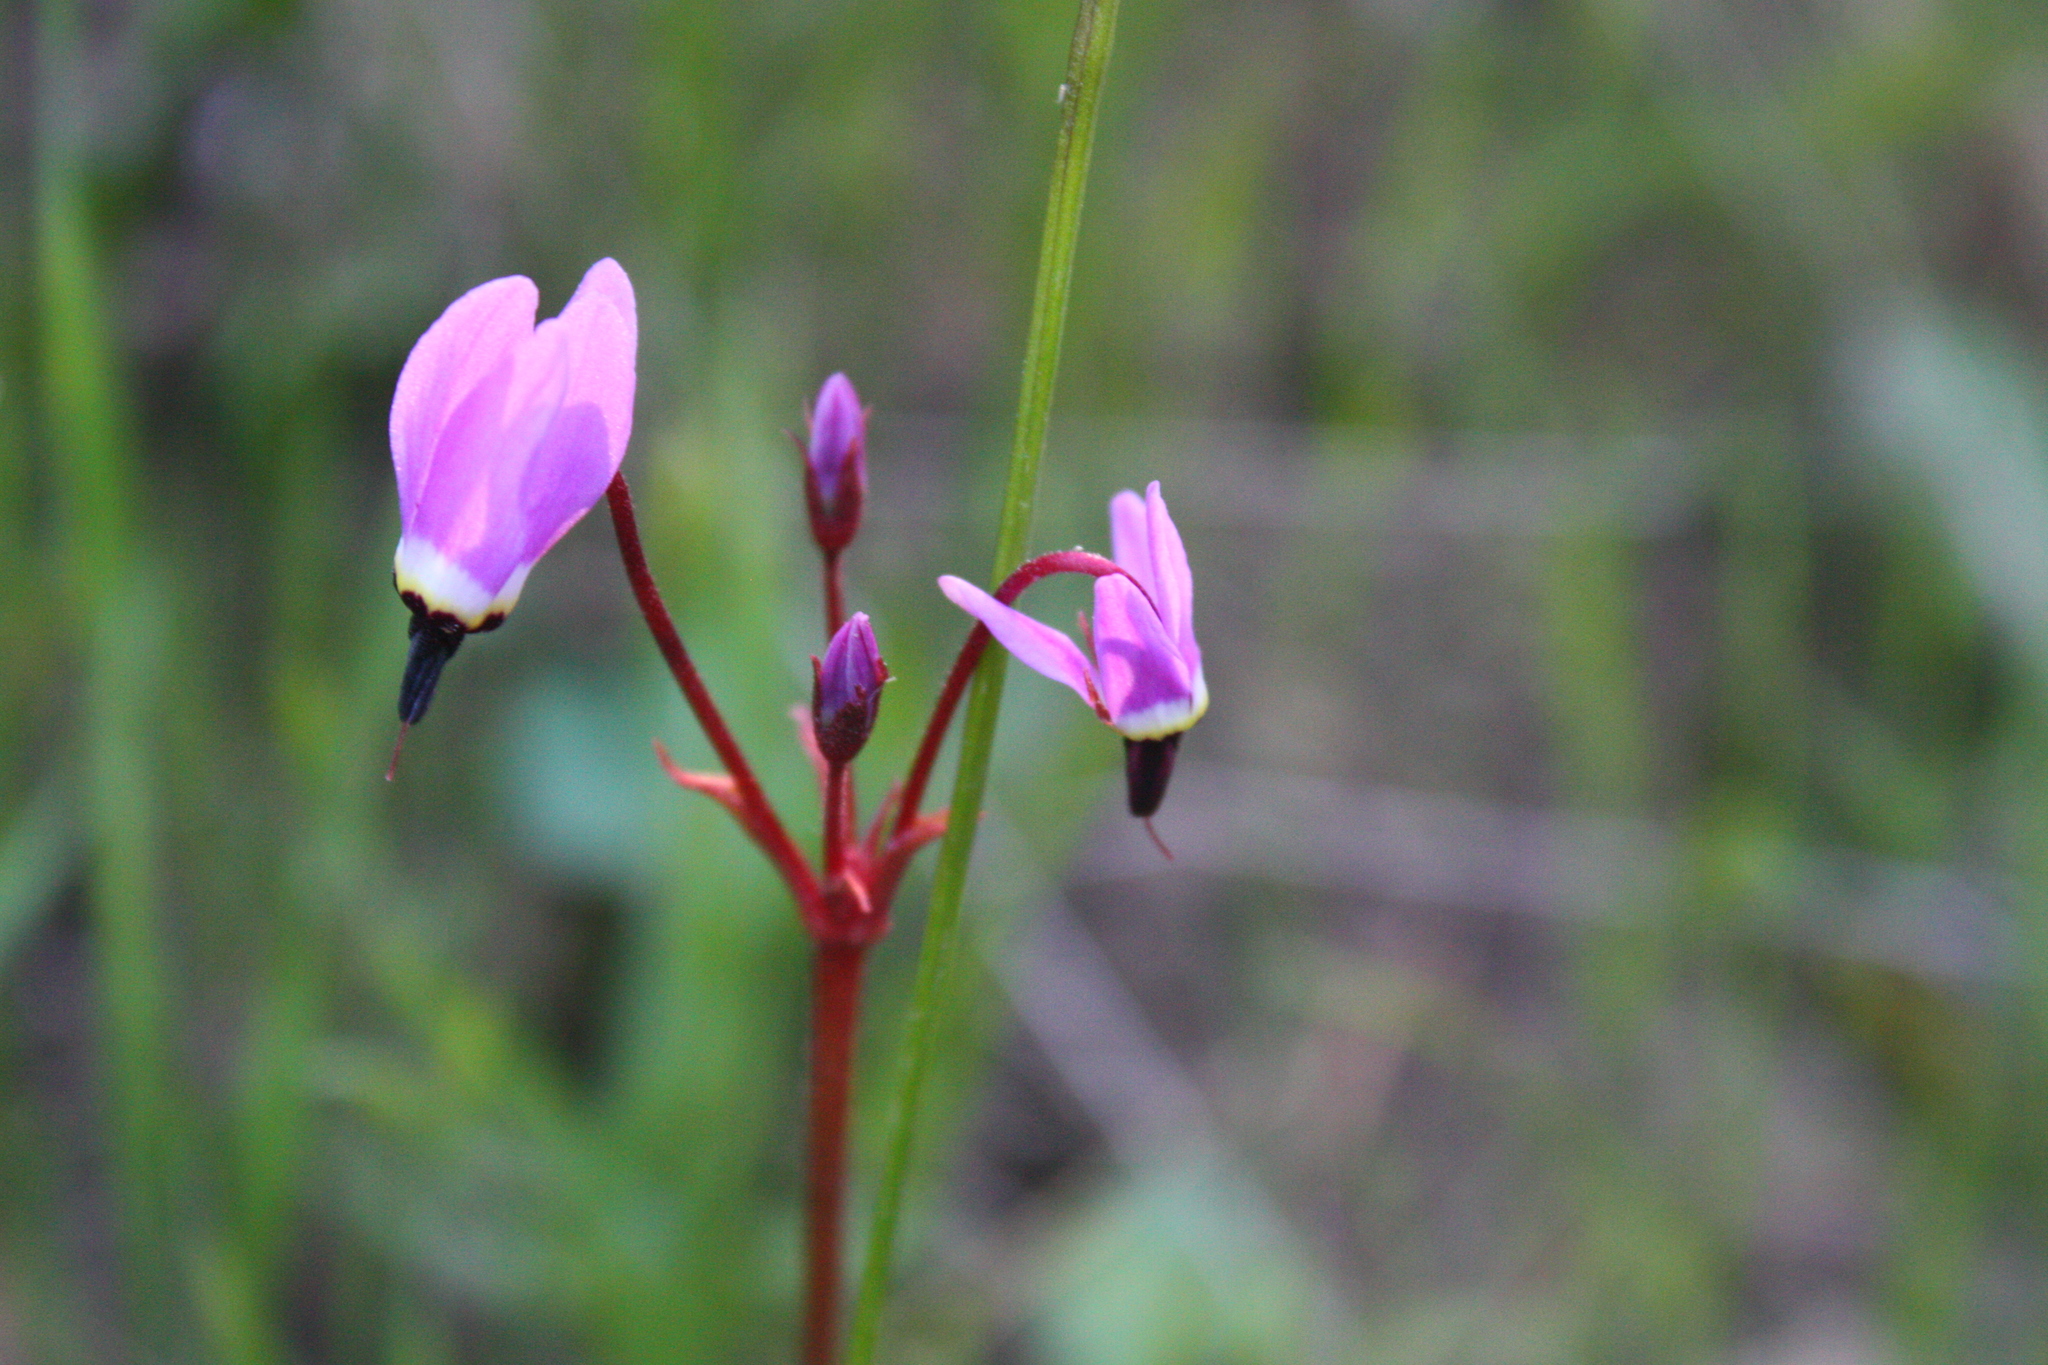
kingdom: Plantae
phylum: Tracheophyta
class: Magnoliopsida
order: Ericales
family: Primulaceae
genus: Dodecatheon
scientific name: Dodecatheon hendersonii
